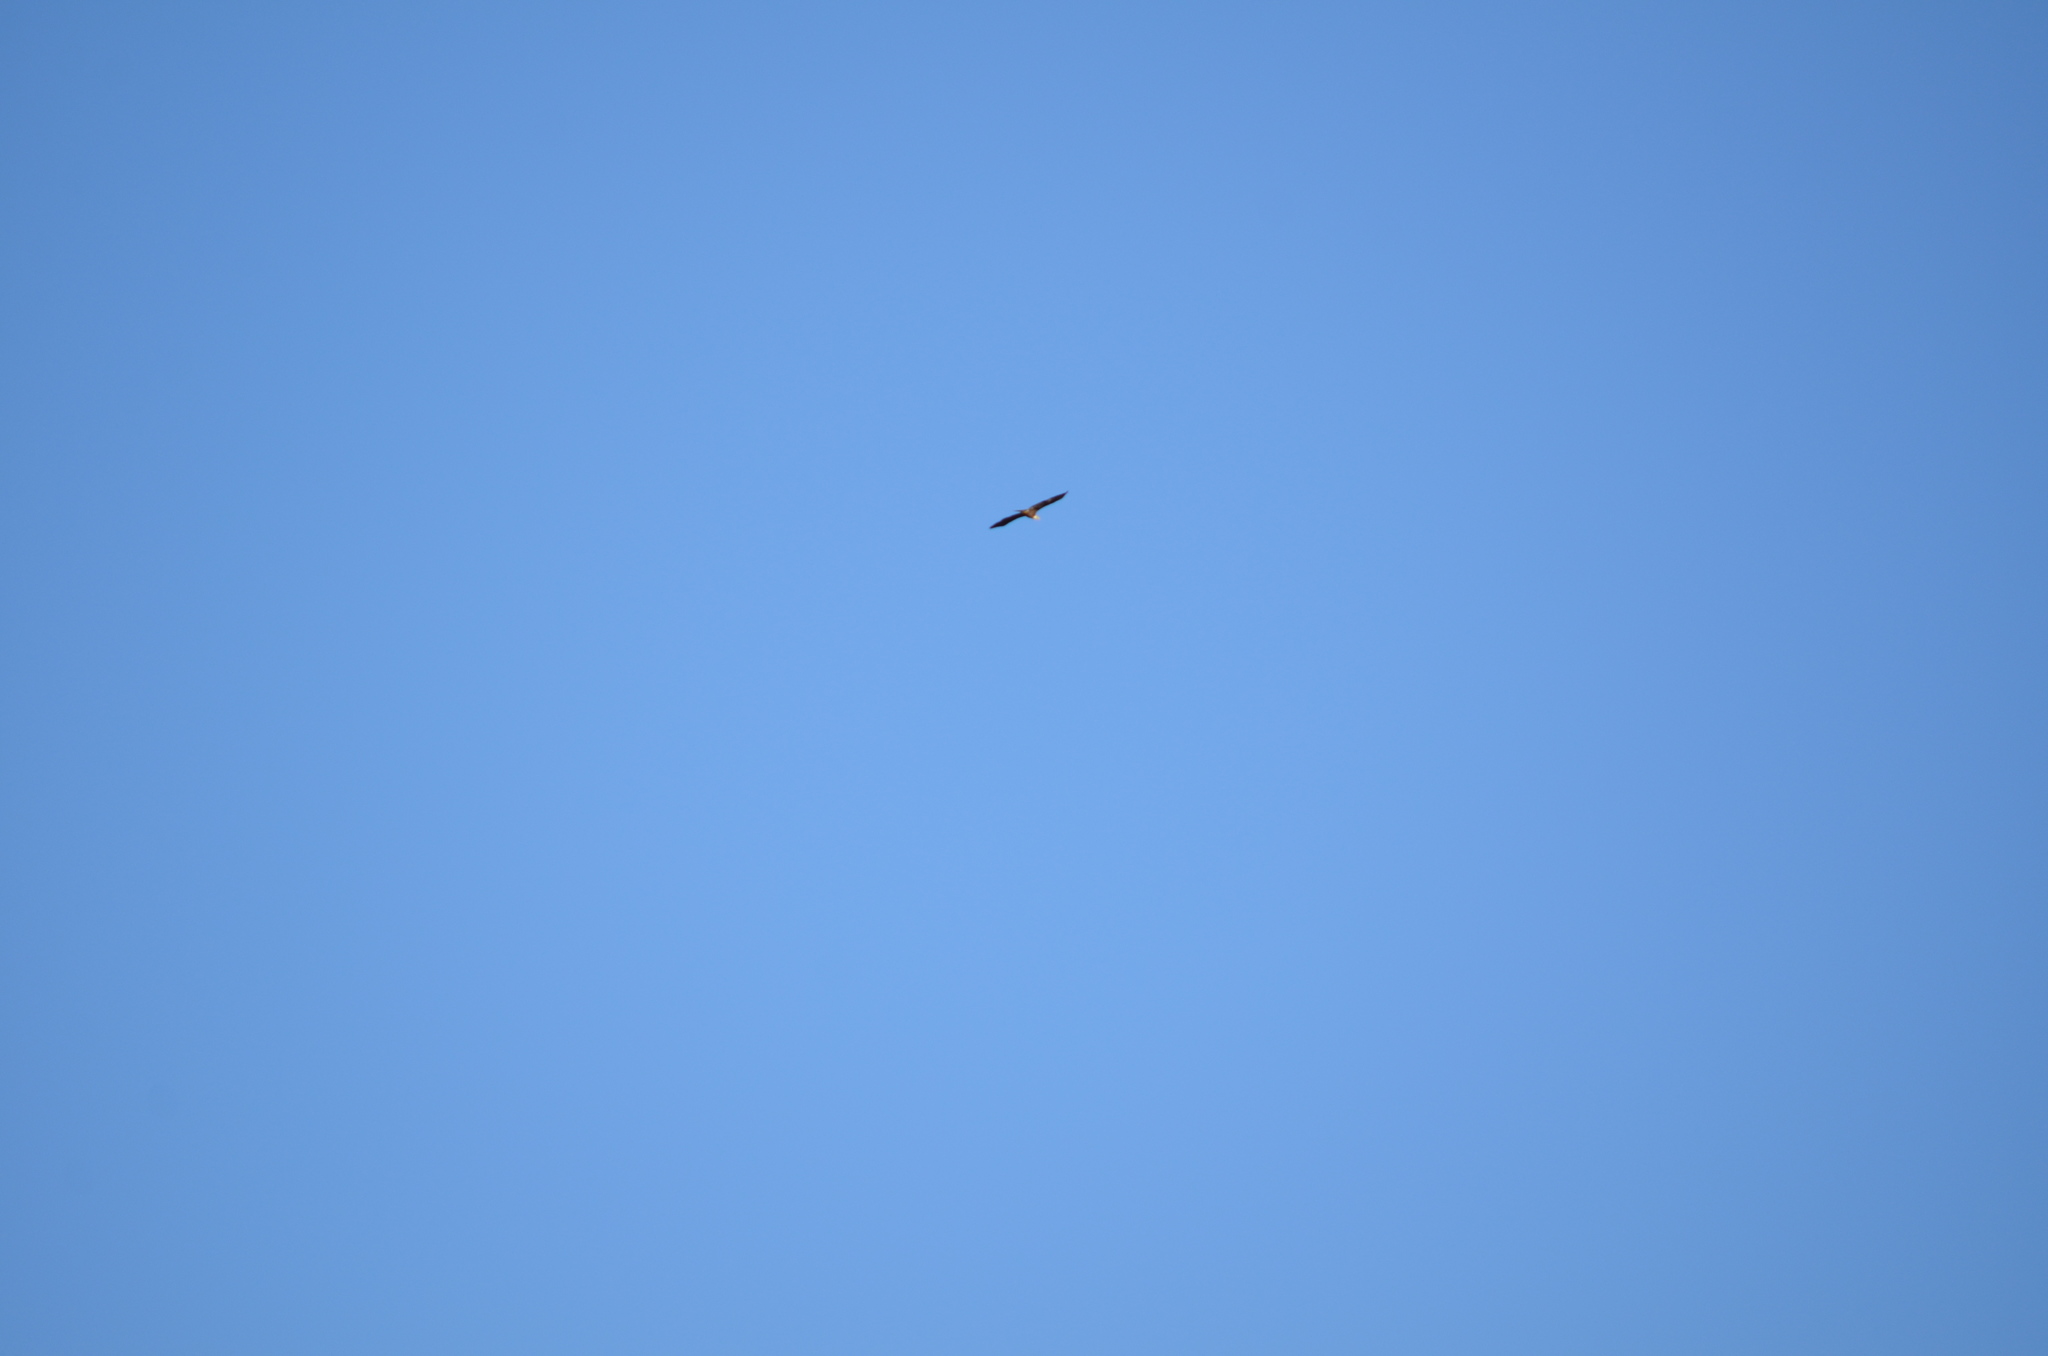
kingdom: Animalia
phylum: Chordata
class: Aves
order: Accipitriformes
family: Accipitridae
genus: Haliaeetus
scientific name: Haliaeetus leucocephalus
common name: Bald eagle
